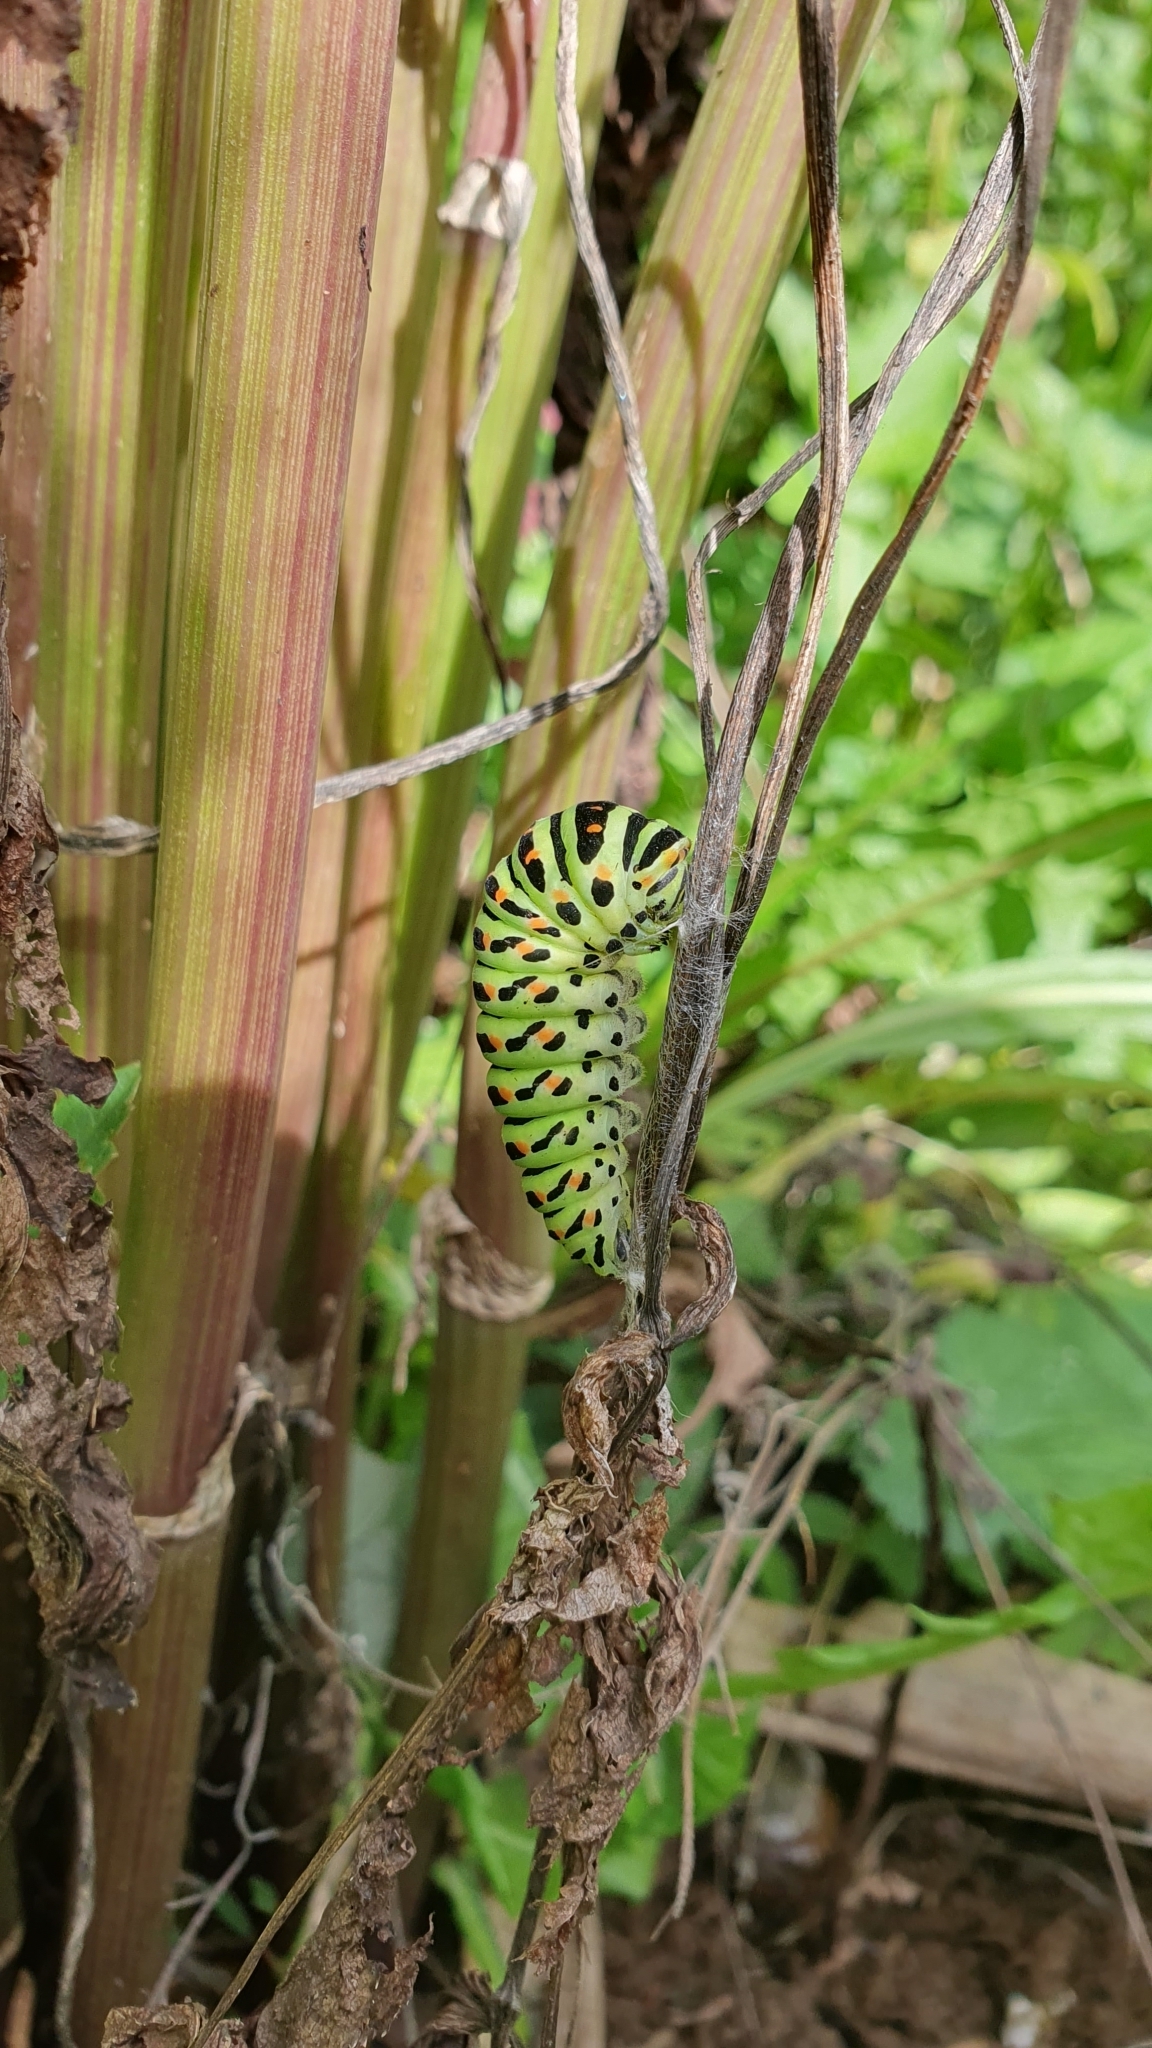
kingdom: Animalia
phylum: Arthropoda
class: Insecta
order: Lepidoptera
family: Papilionidae
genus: Papilio
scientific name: Papilio machaon
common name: Swallowtail
